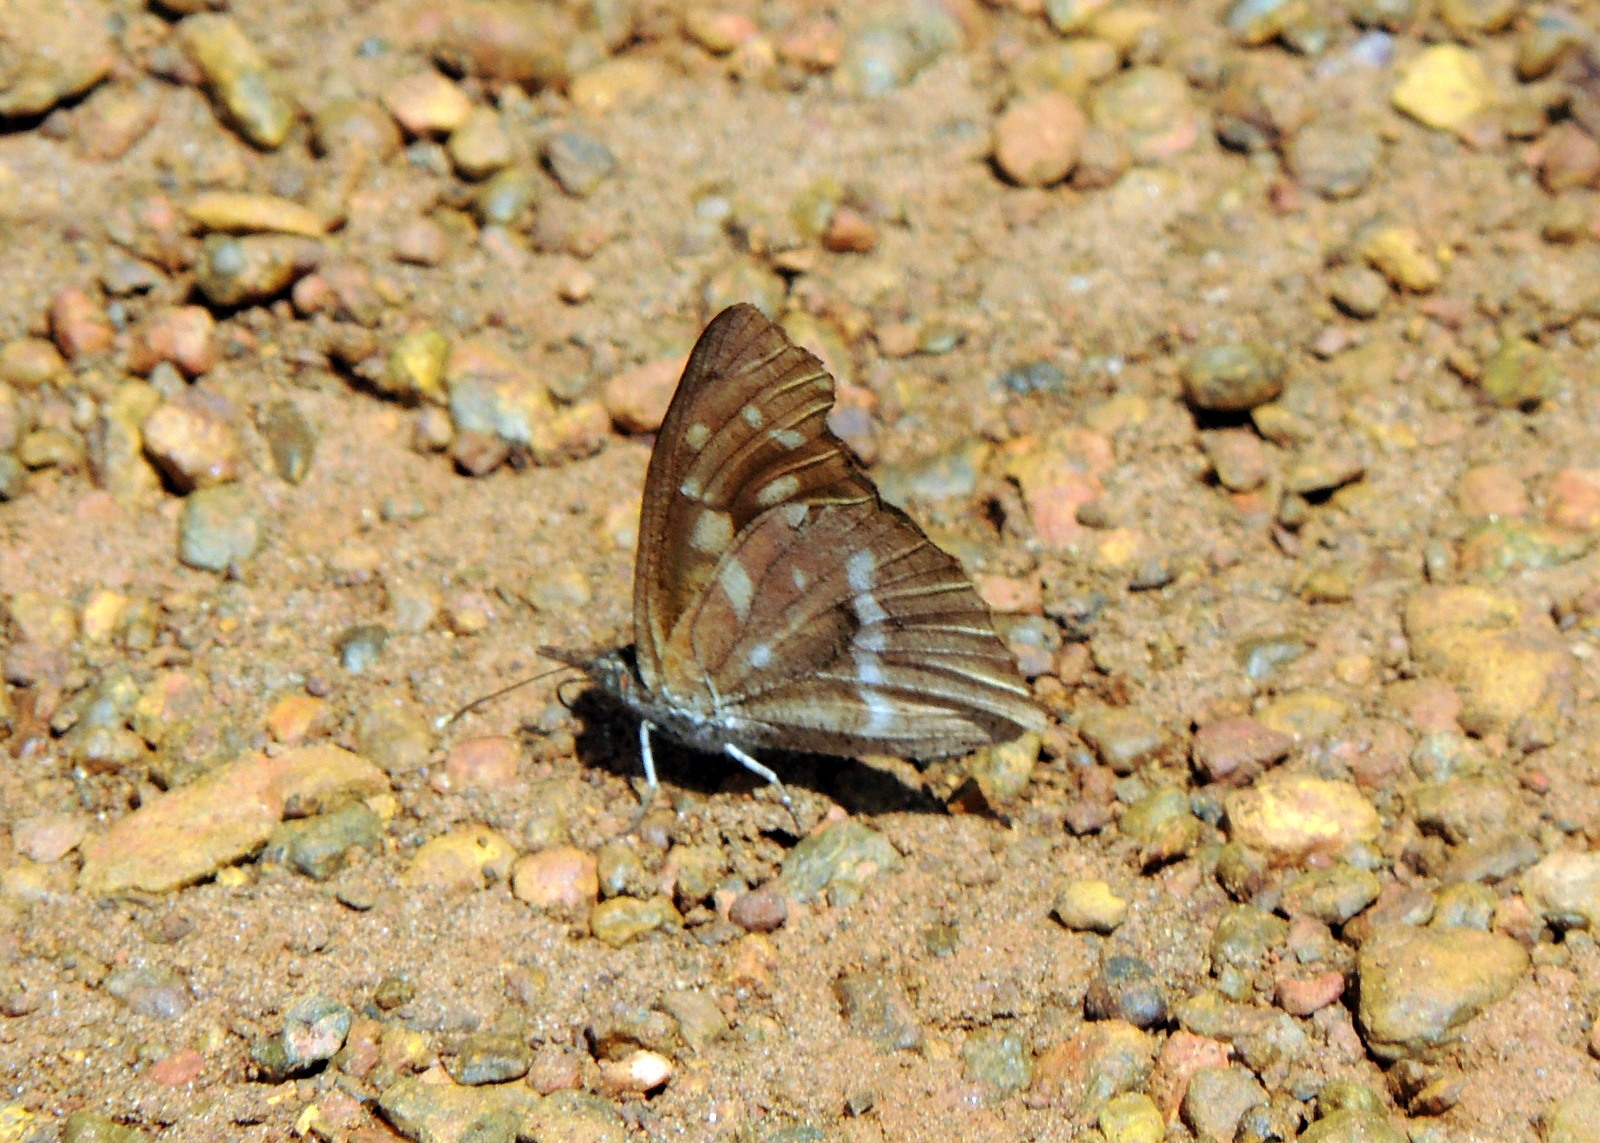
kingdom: Animalia
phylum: Arthropoda
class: Insecta
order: Lepidoptera
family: Nymphalidae
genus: Libythea
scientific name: Libythea labdaca
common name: Northern african snout
